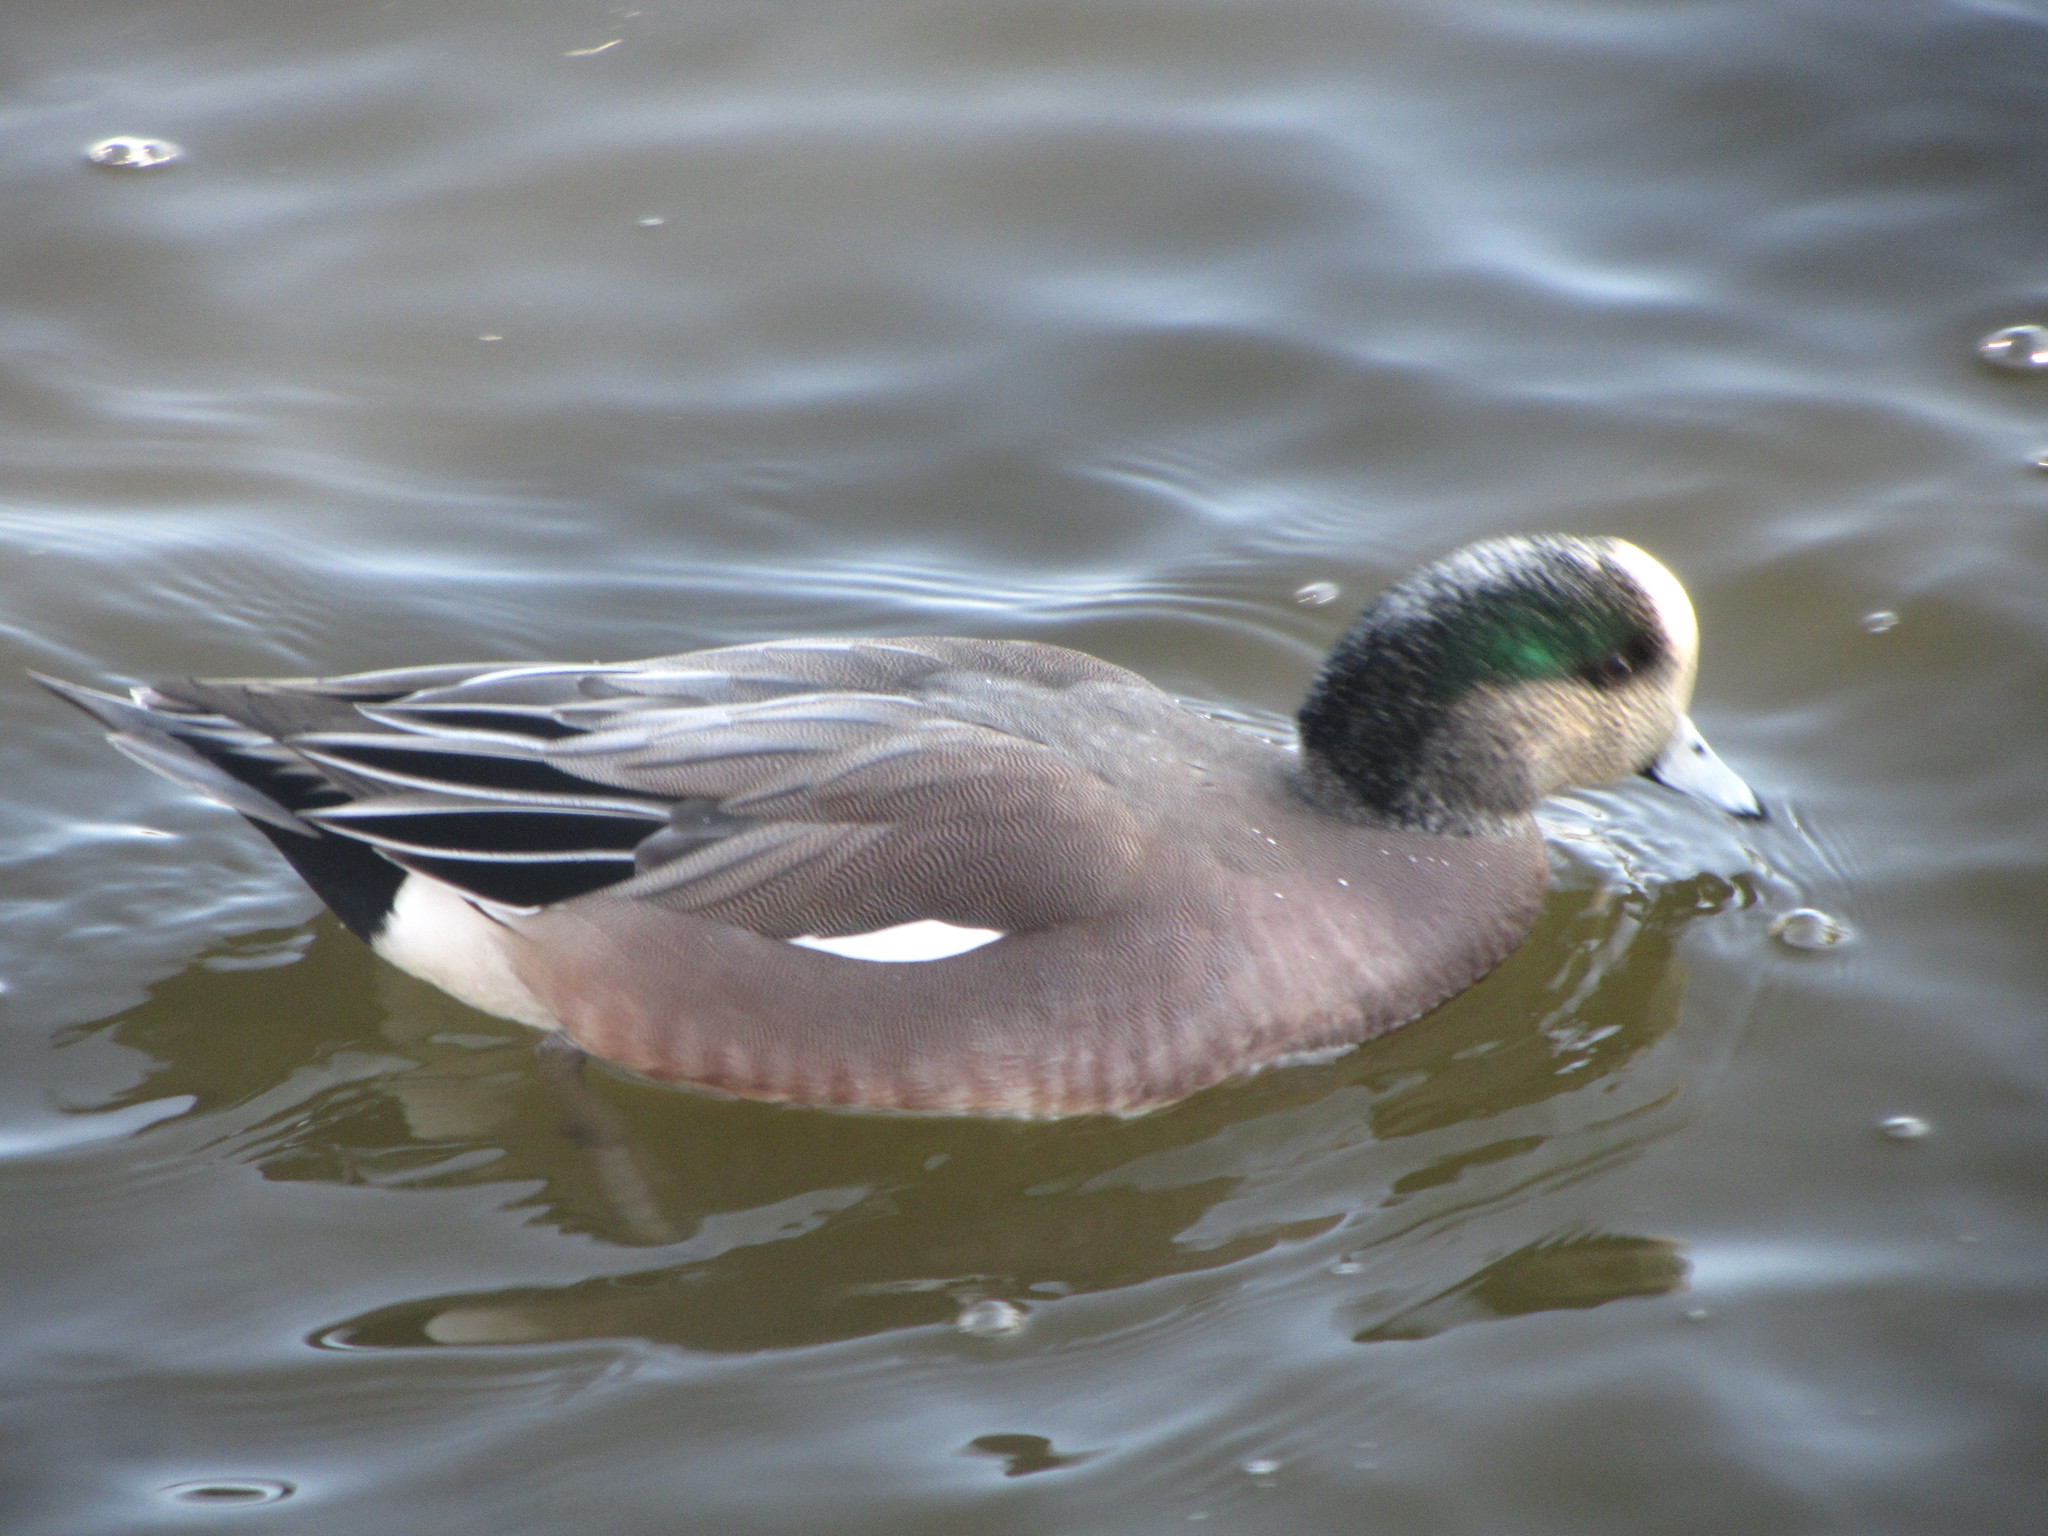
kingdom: Animalia
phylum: Chordata
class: Aves
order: Anseriformes
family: Anatidae
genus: Mareca
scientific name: Mareca americana
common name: American wigeon
